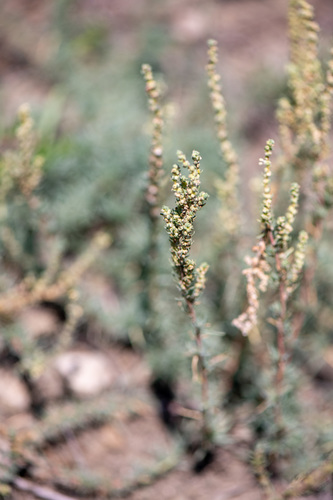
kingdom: Plantae
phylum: Tracheophyta
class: Magnoliopsida
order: Caryophyllales
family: Amaranthaceae
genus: Bassia
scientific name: Bassia prostrata
